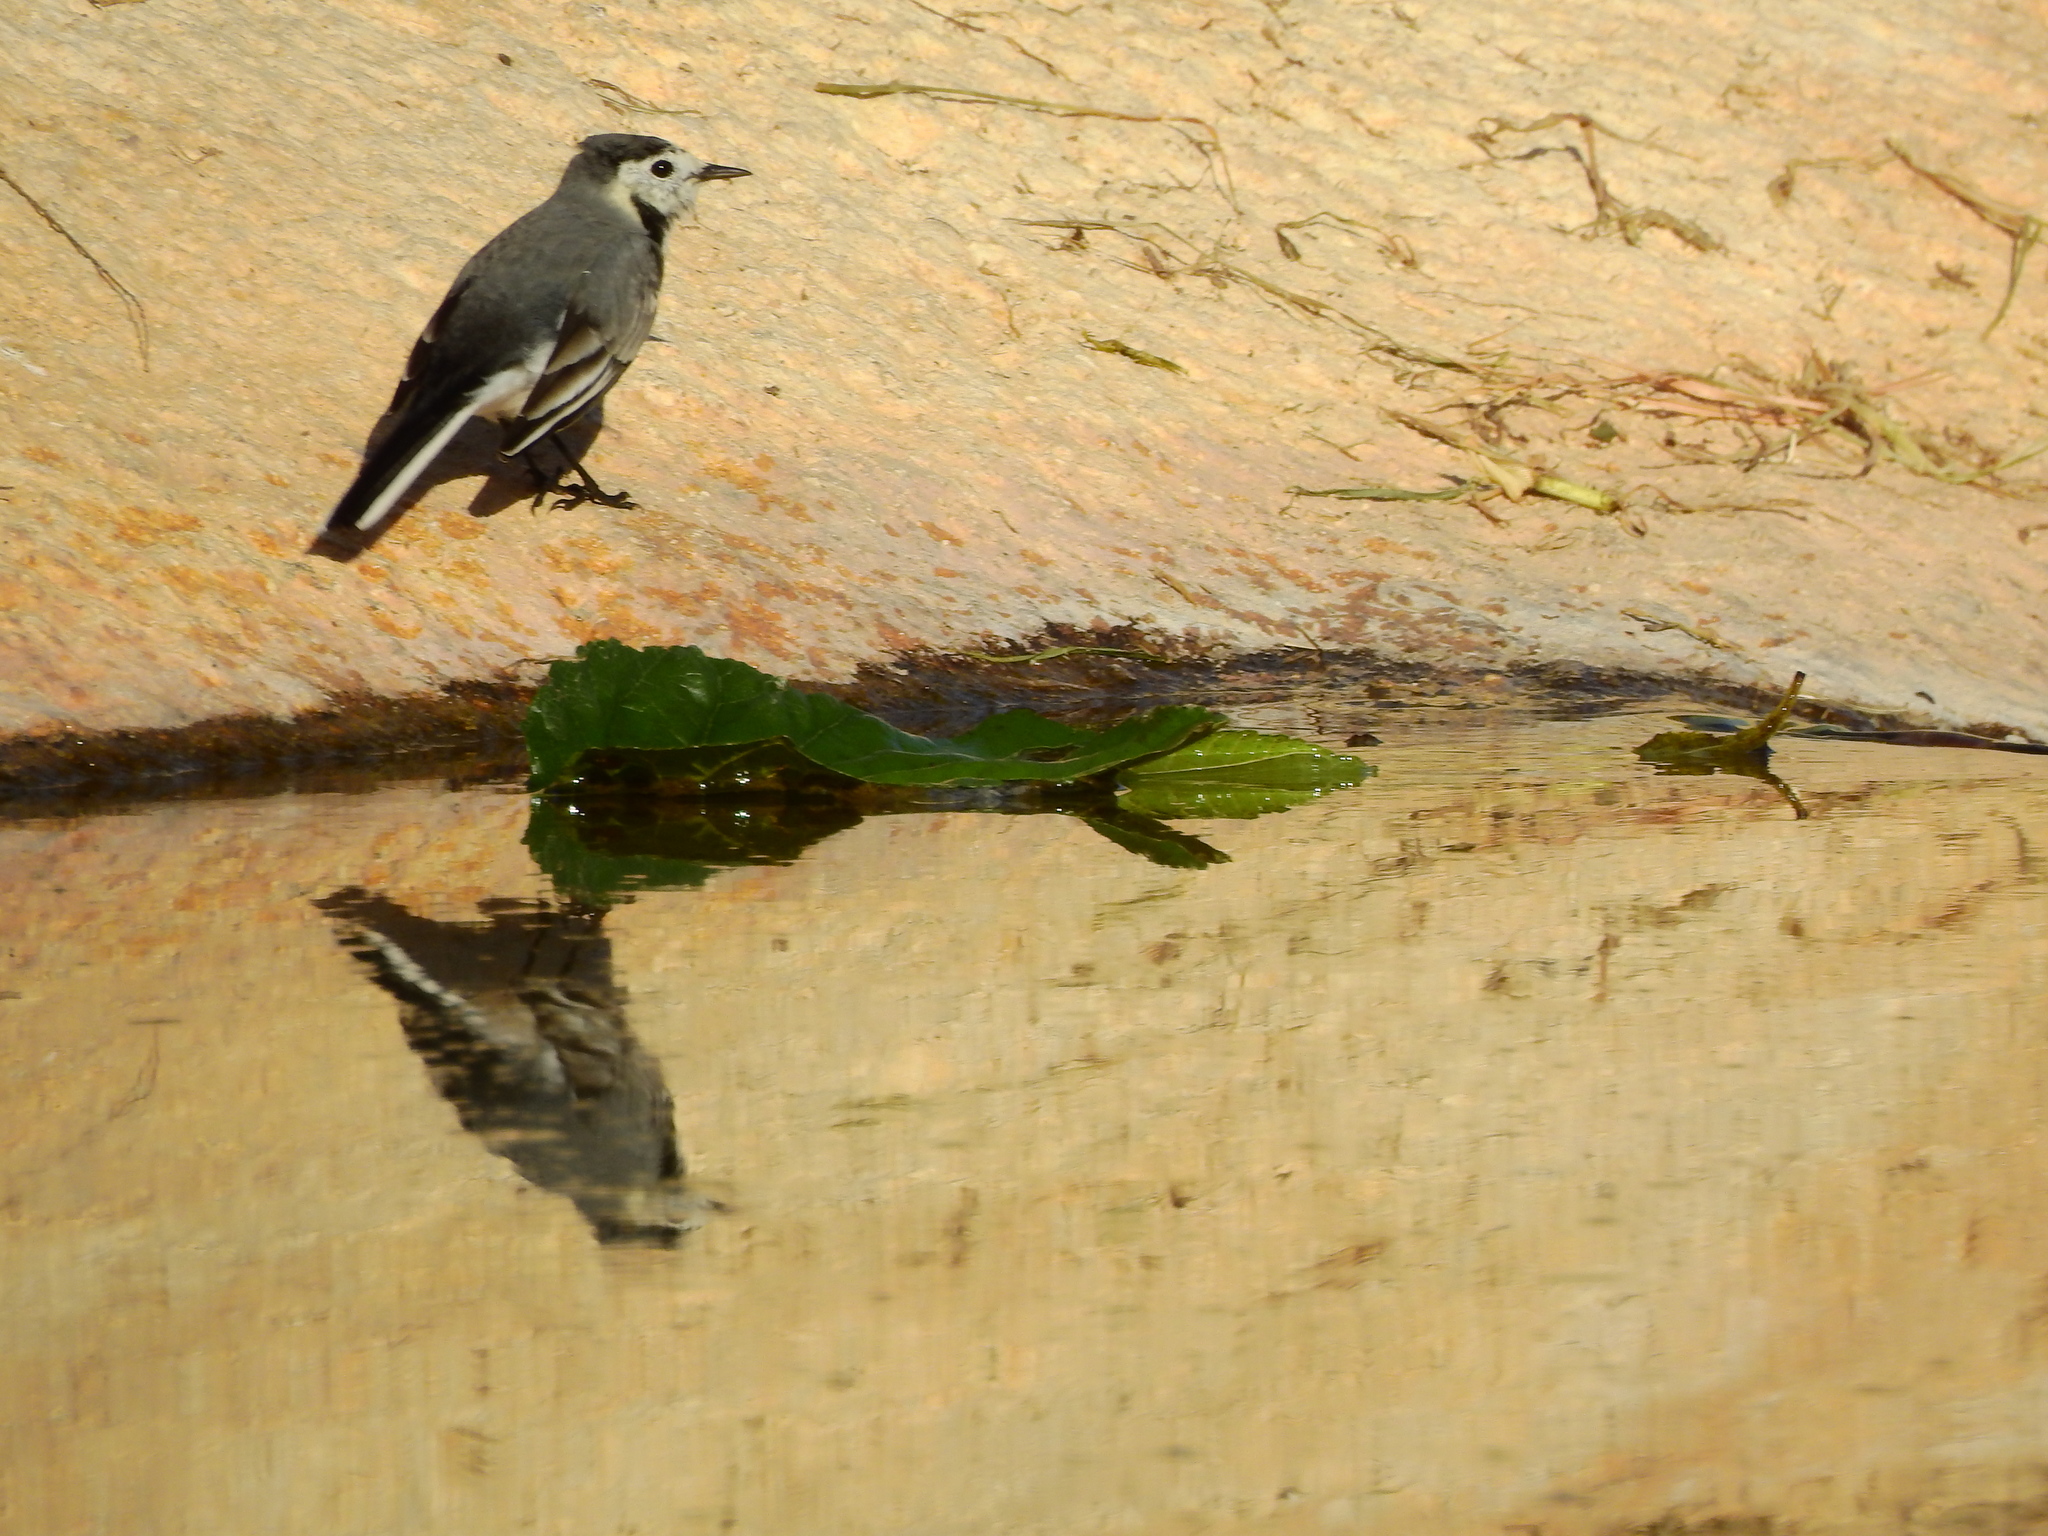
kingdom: Animalia
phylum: Chordata
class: Aves
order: Passeriformes
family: Motacillidae
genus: Motacilla
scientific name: Motacilla alba
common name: White wagtail
